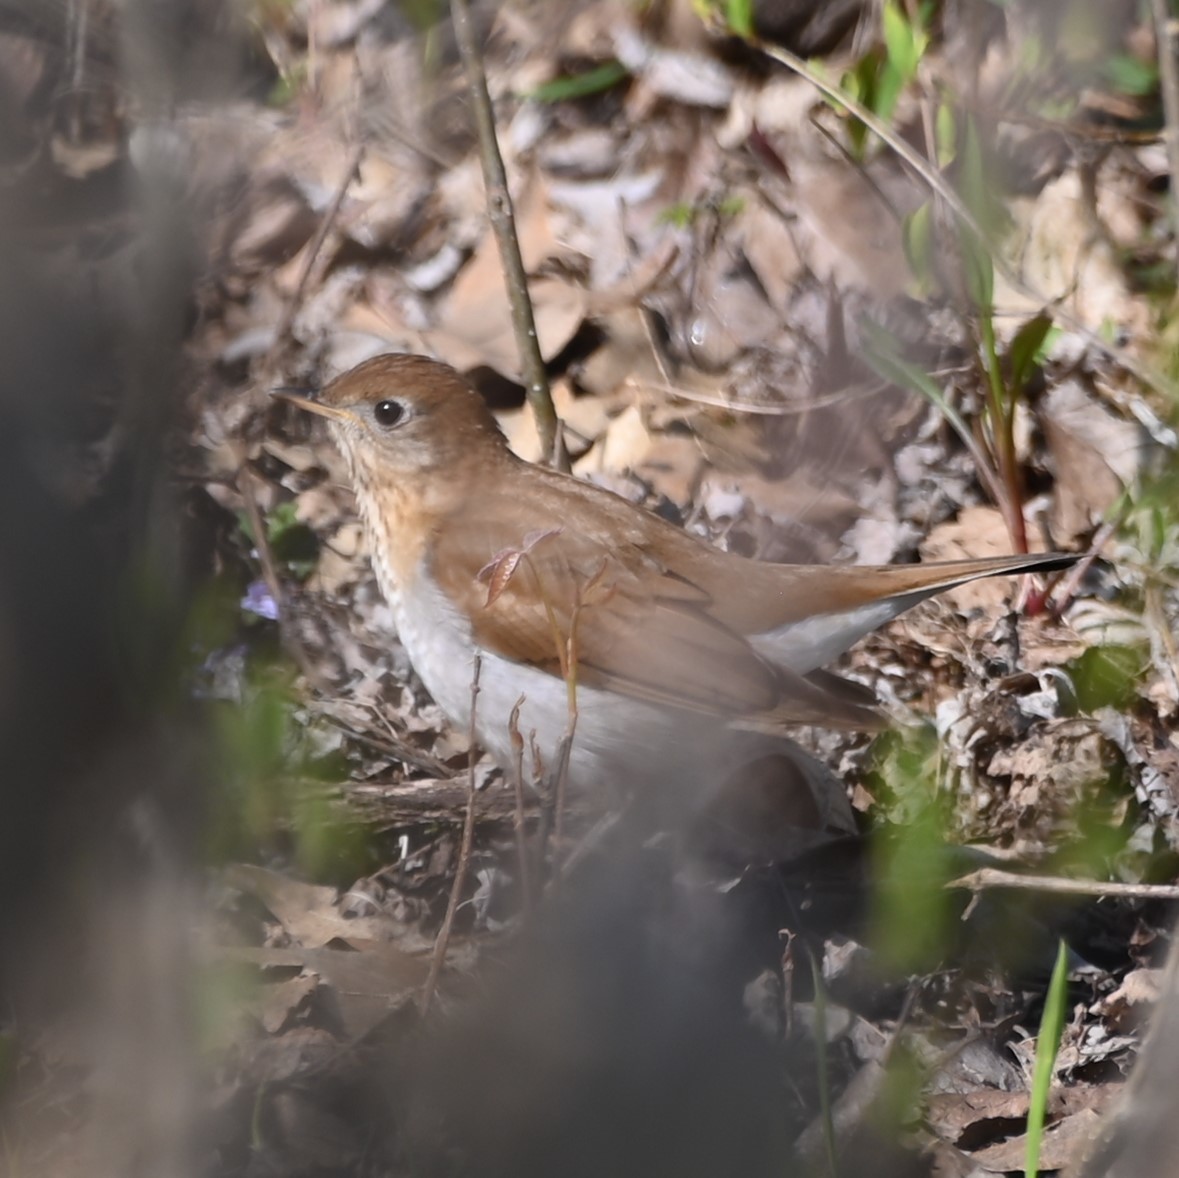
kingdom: Animalia
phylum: Chordata
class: Aves
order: Passeriformes
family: Turdidae
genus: Catharus
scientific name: Catharus fuscescens
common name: Veery
